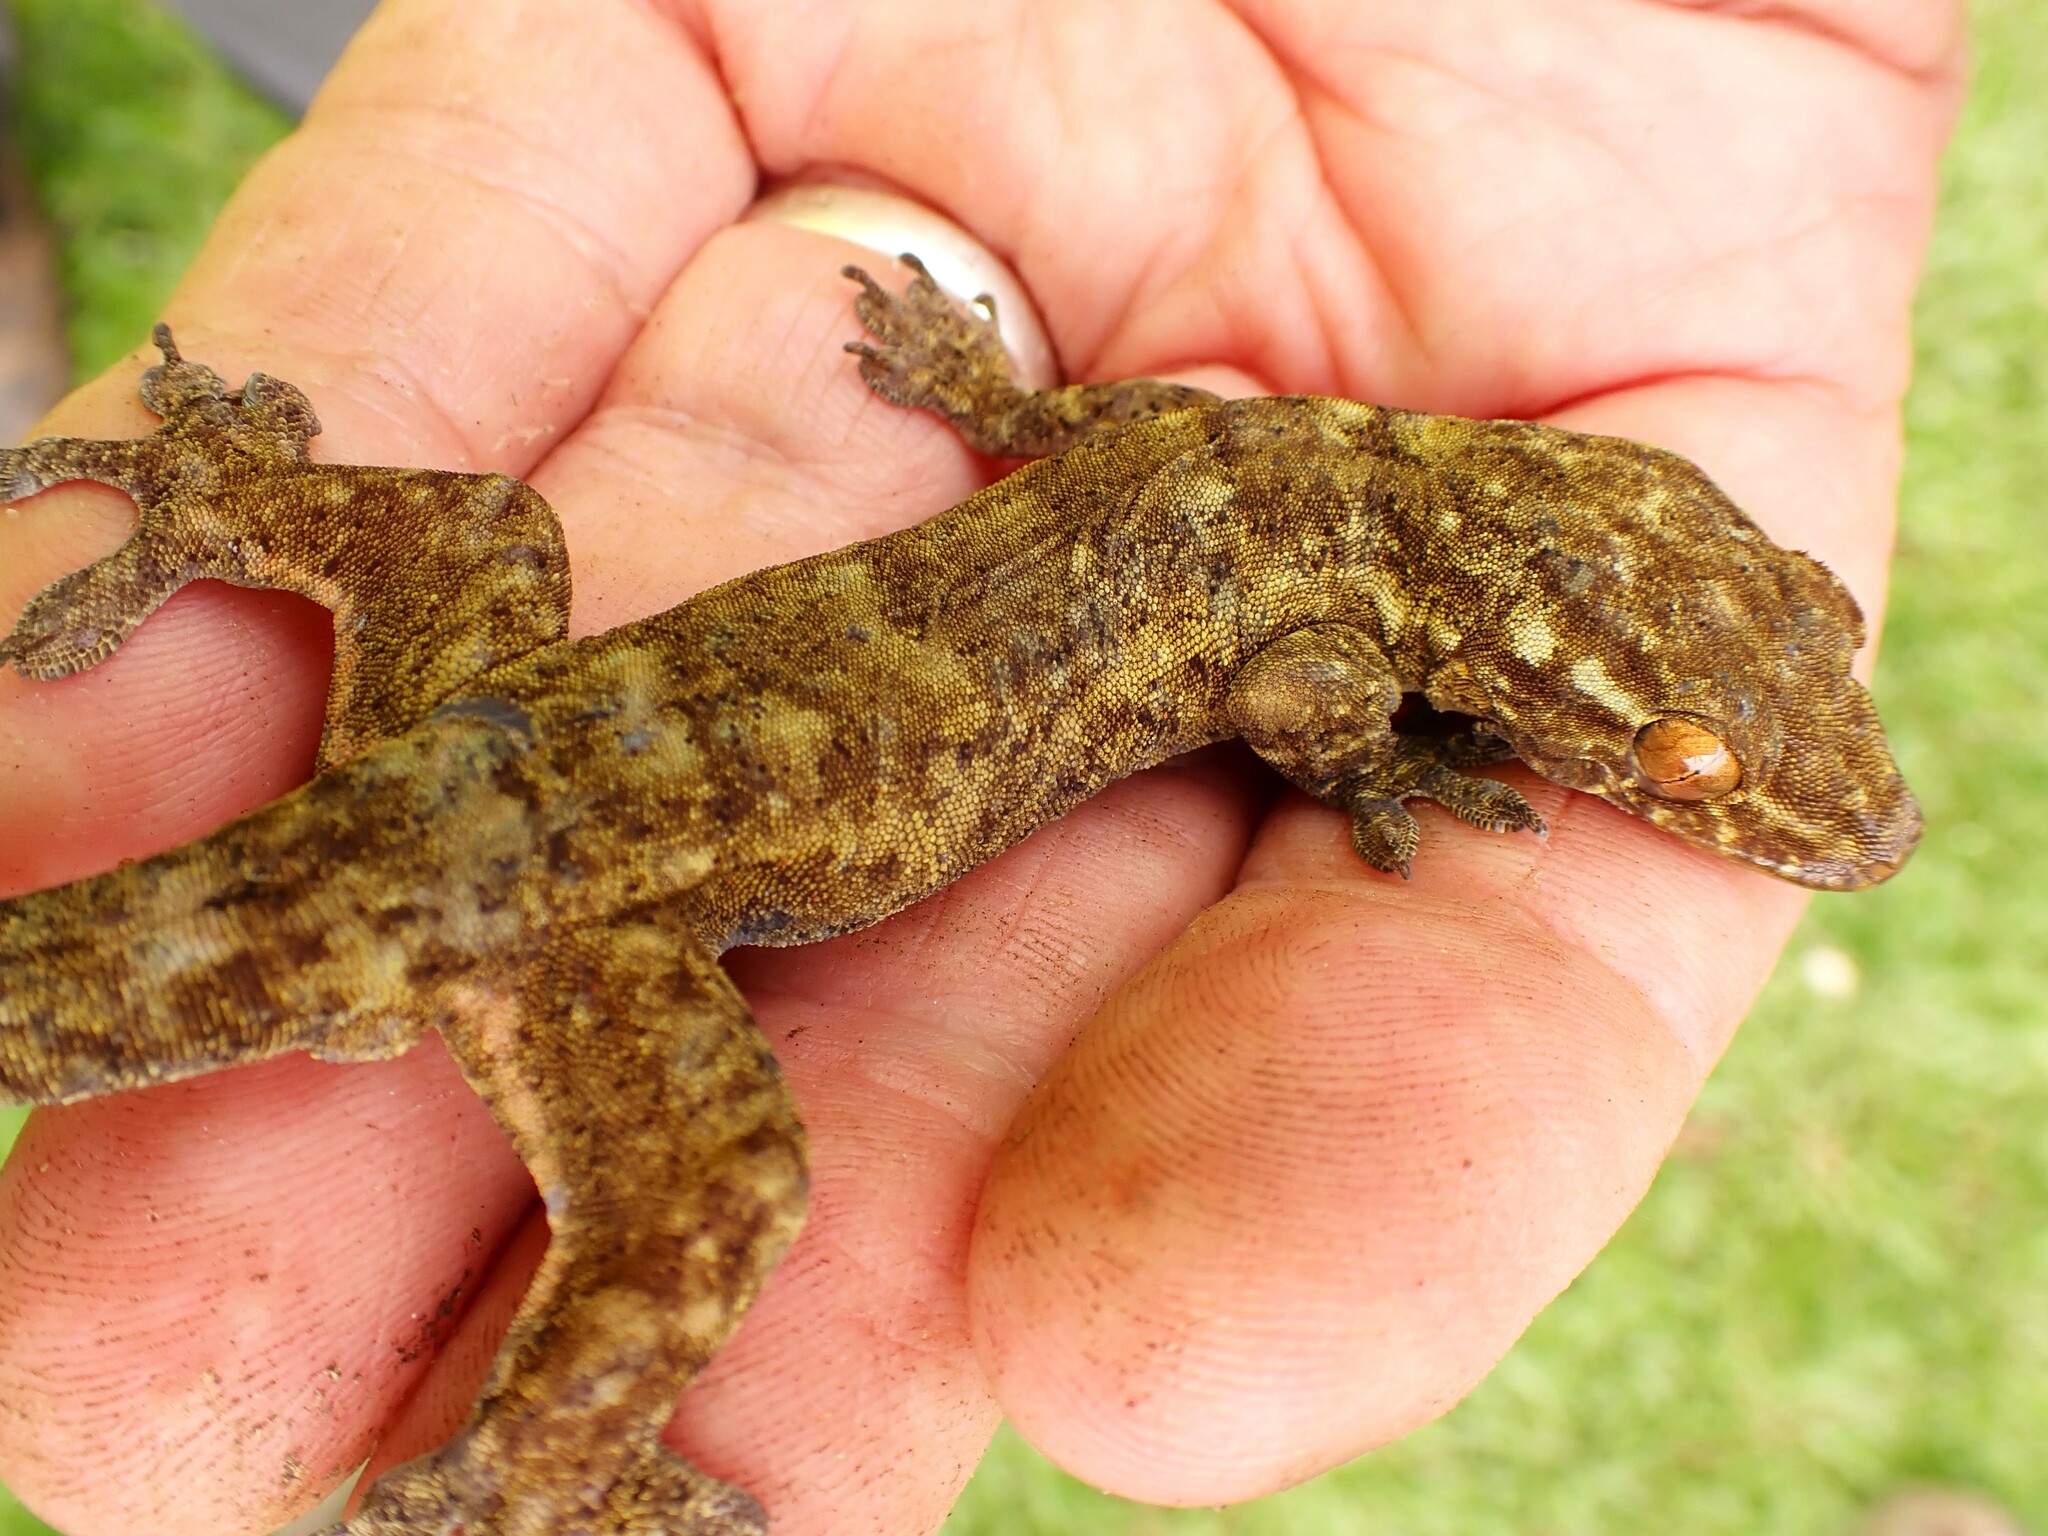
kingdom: Animalia
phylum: Chordata
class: Squamata
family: Gekkonidae
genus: Gehyra
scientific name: Gehyra oceanica
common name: Pacific dtella
